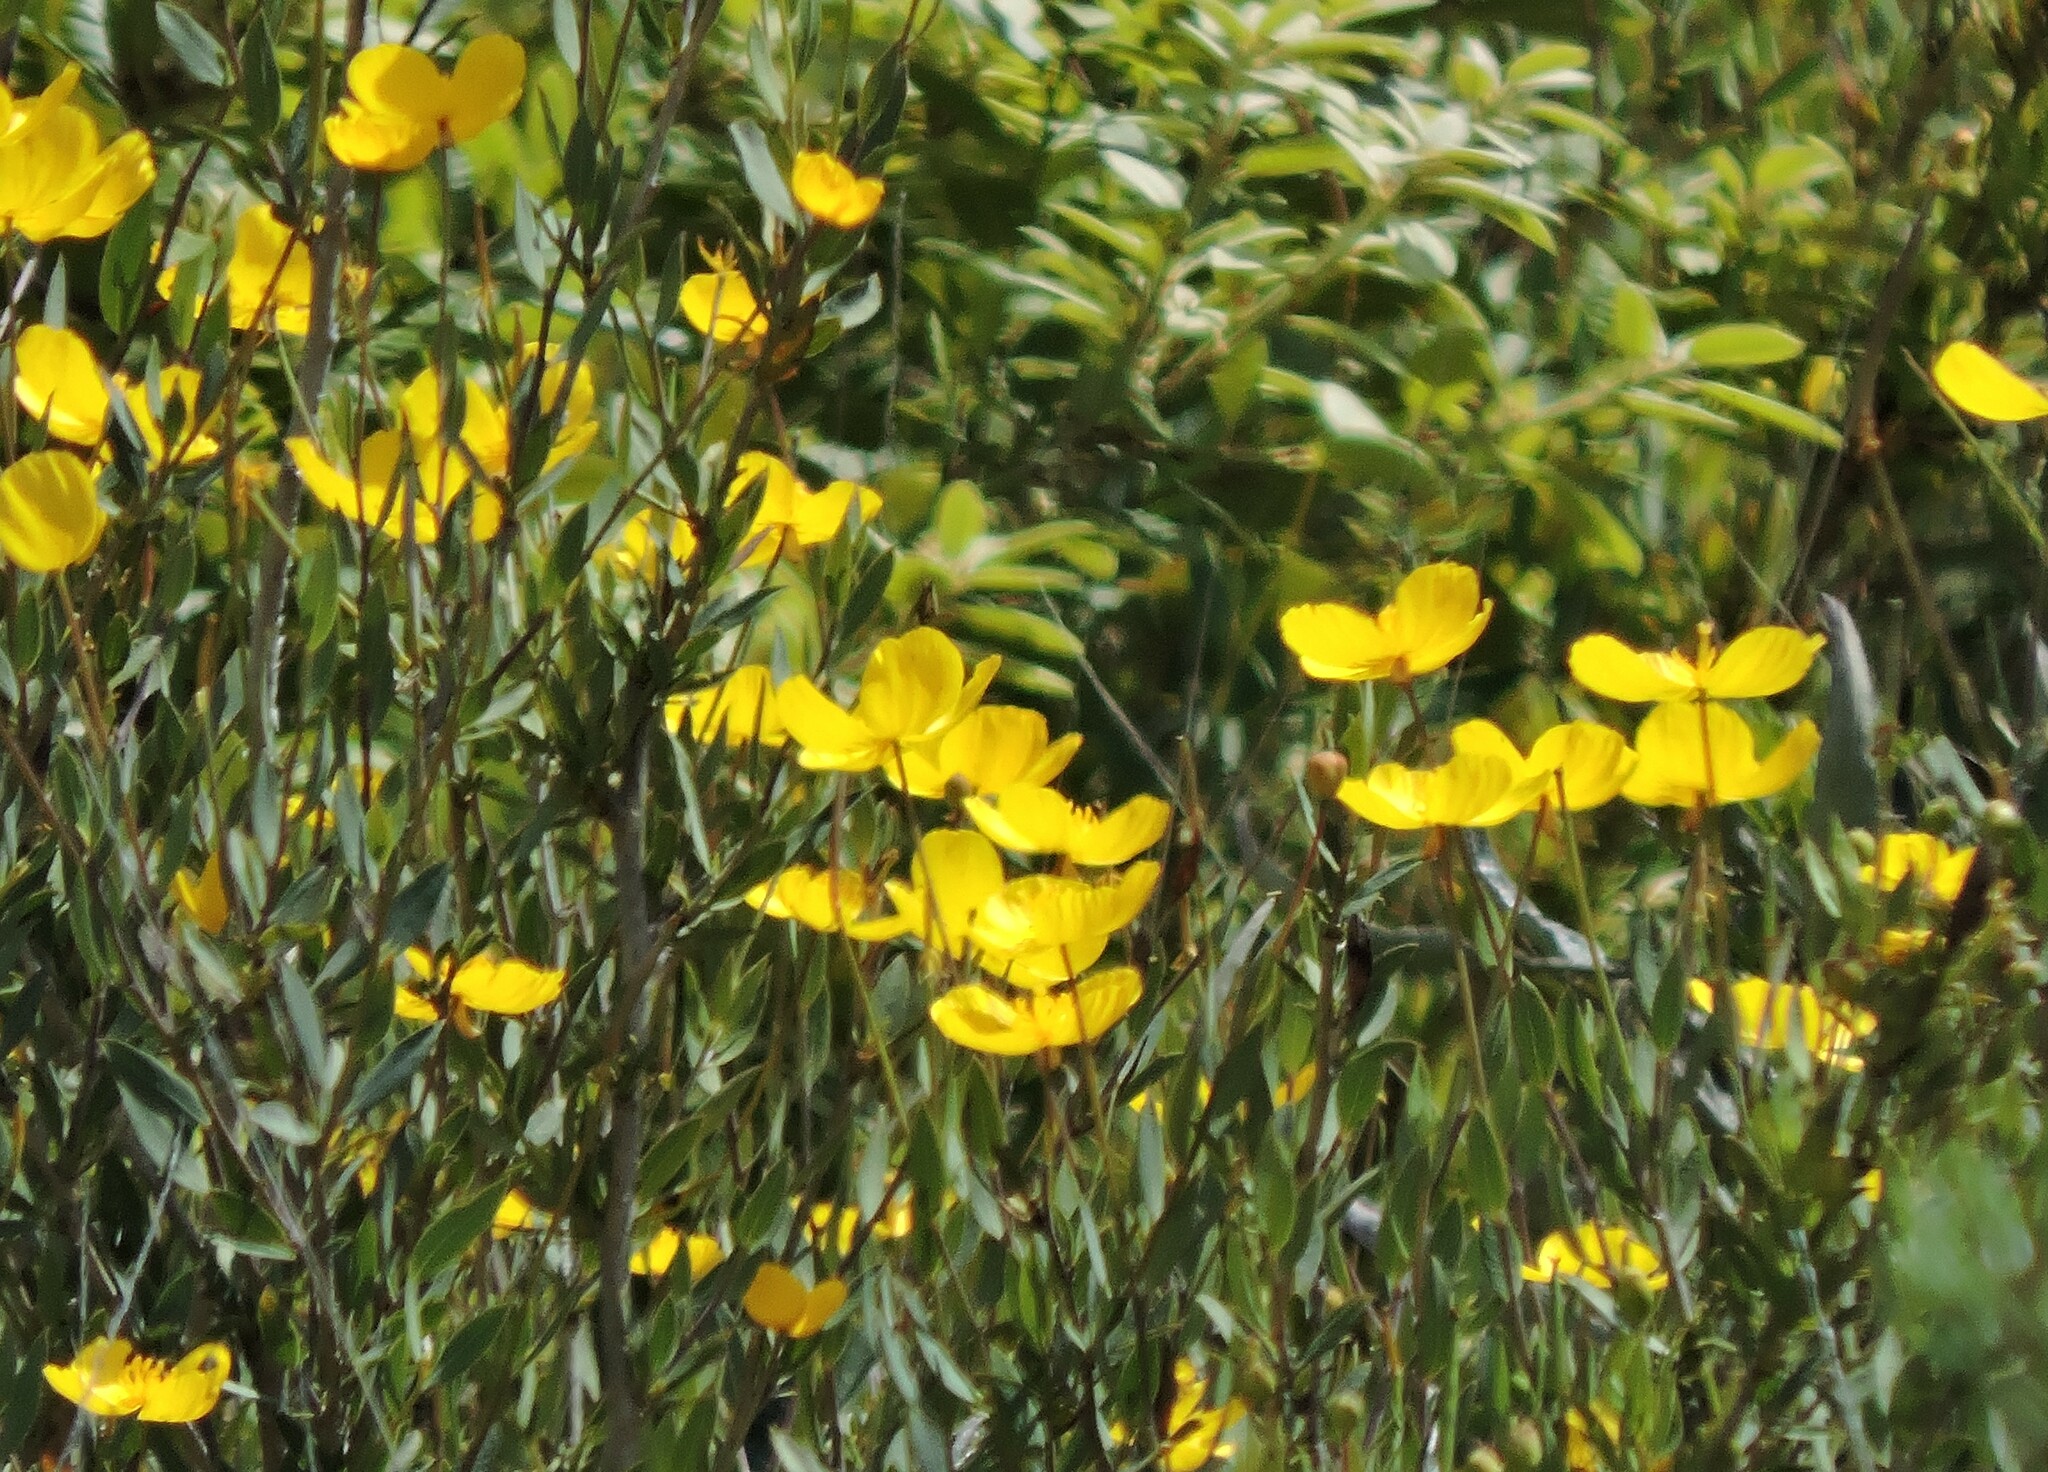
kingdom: Plantae
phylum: Tracheophyta
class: Magnoliopsida
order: Ranunculales
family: Papaveraceae
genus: Dendromecon
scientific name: Dendromecon rigida
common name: Tree poppy
